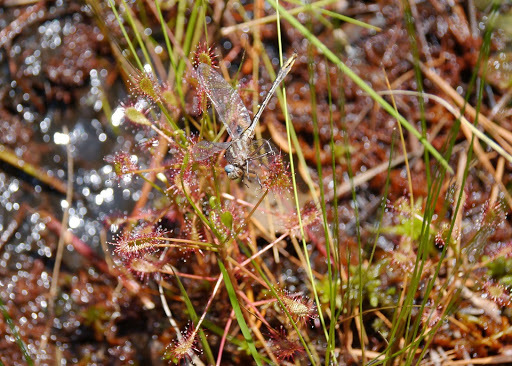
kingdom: Plantae
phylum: Tracheophyta
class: Magnoliopsida
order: Caryophyllales
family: Droseraceae
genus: Drosera
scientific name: Drosera intermedia
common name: Oblong-leaved sundew
